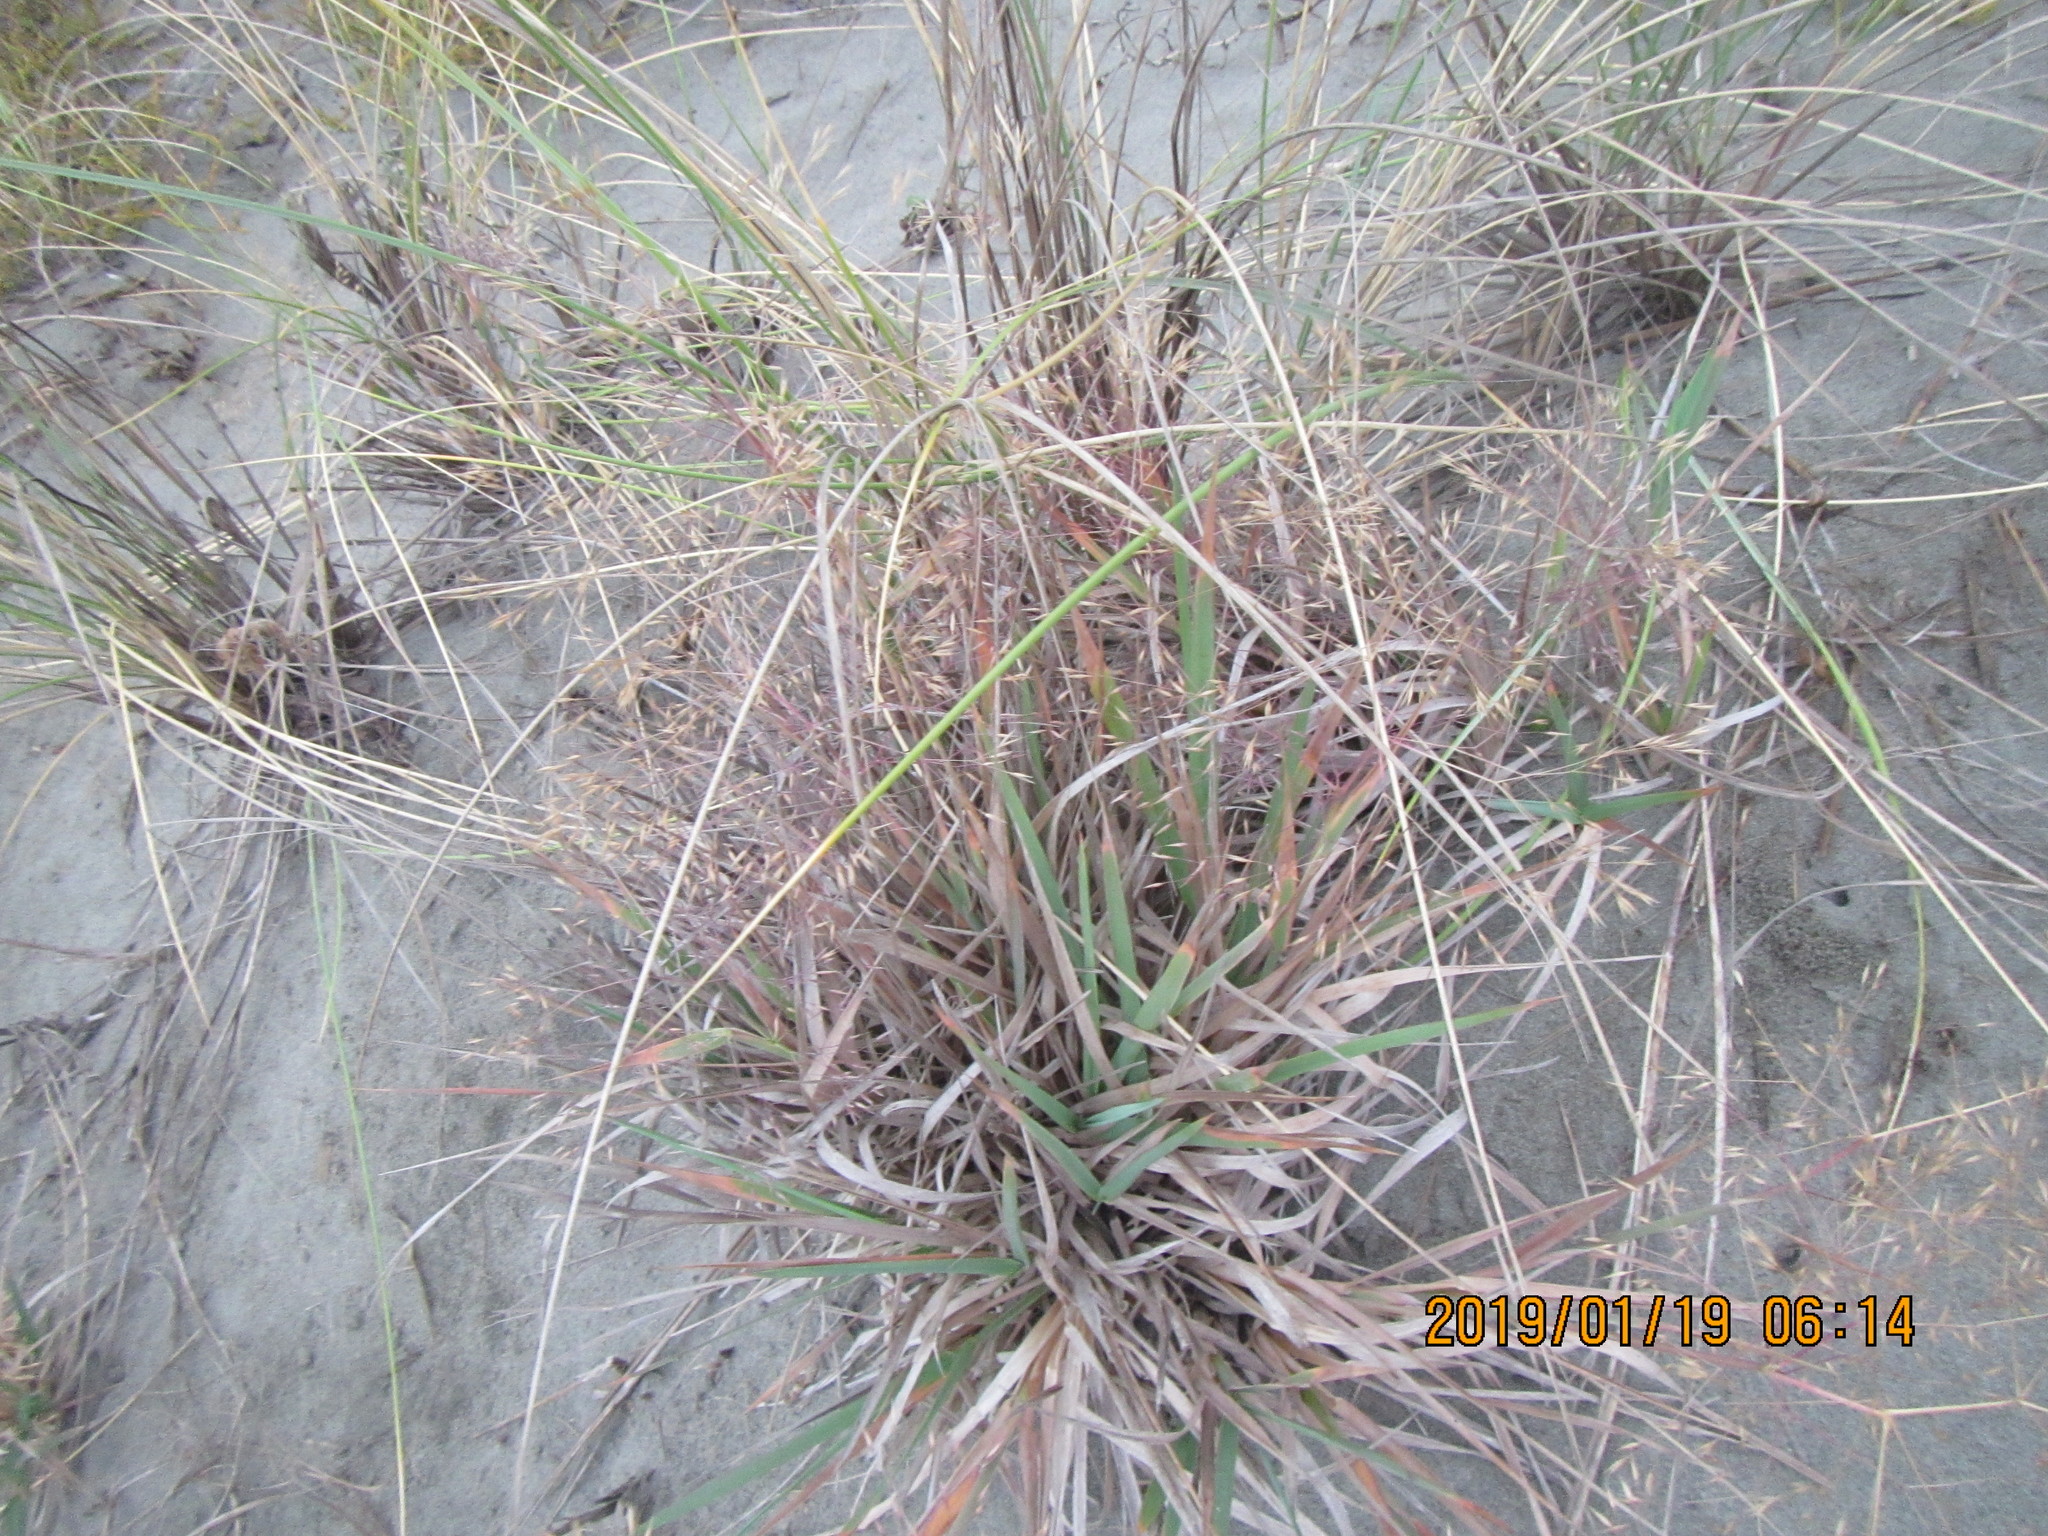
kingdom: Plantae
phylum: Tracheophyta
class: Liliopsida
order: Poales
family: Poaceae
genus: Lachnagrostis
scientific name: Lachnagrostis billardierei
